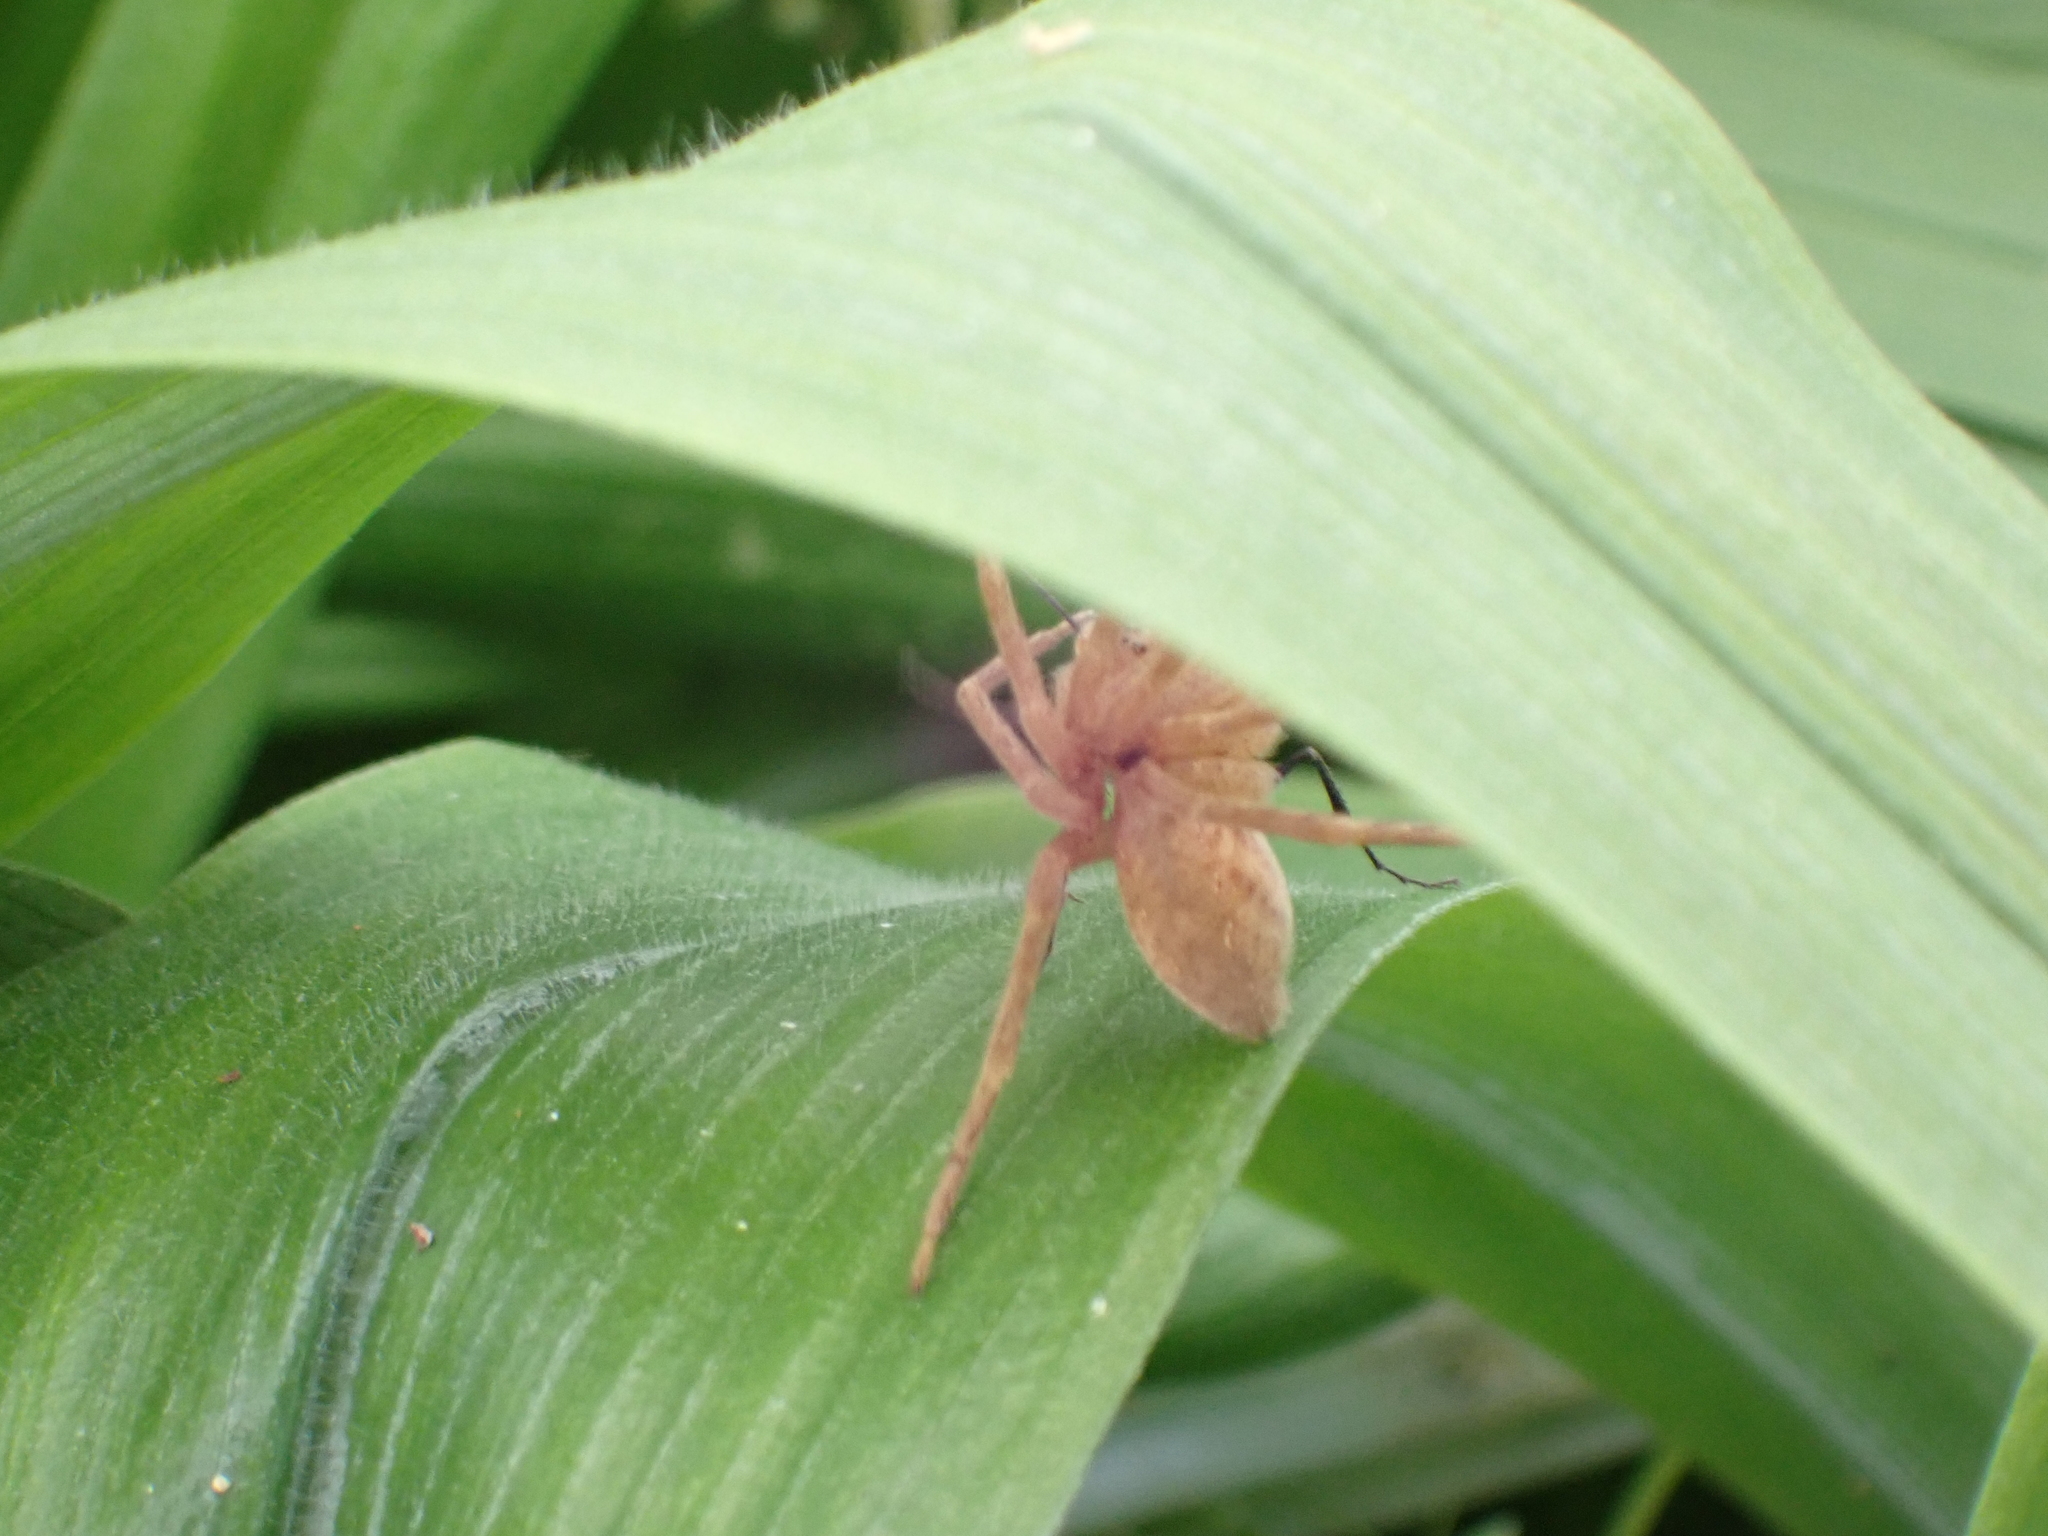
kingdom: Animalia
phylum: Arthropoda
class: Arachnida
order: Araneae
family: Pisauridae
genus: Pisaurina
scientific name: Pisaurina mira
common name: American nursery web spider
